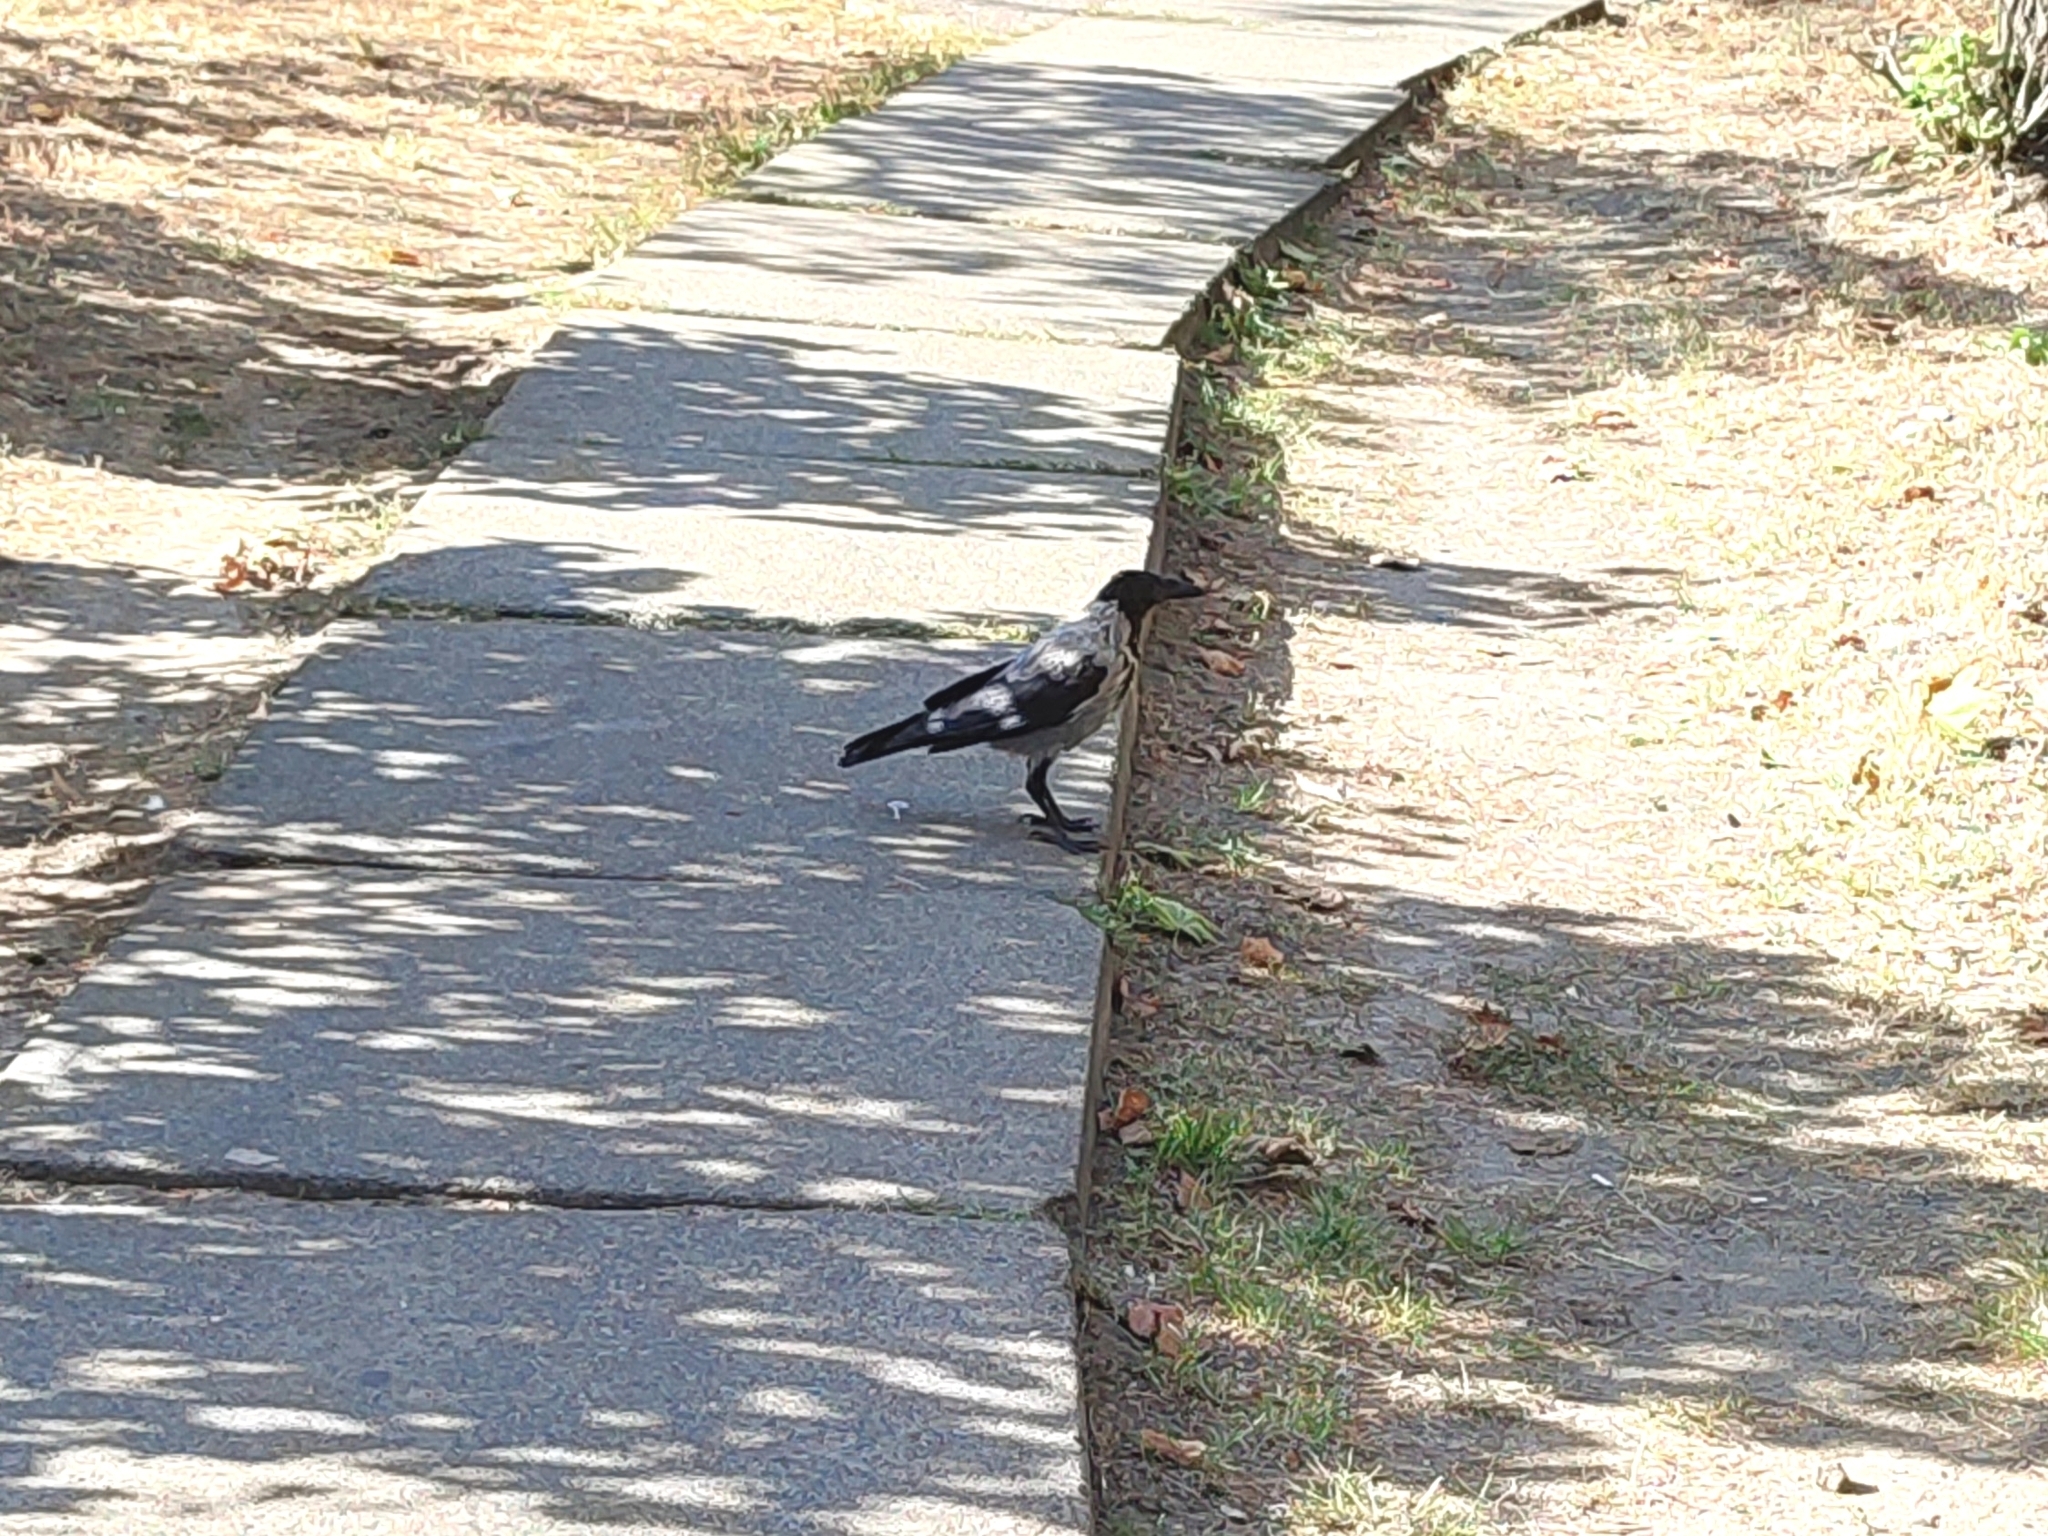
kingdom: Animalia
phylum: Chordata
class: Aves
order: Passeriformes
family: Corvidae
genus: Corvus
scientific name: Corvus cornix
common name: Hooded crow
